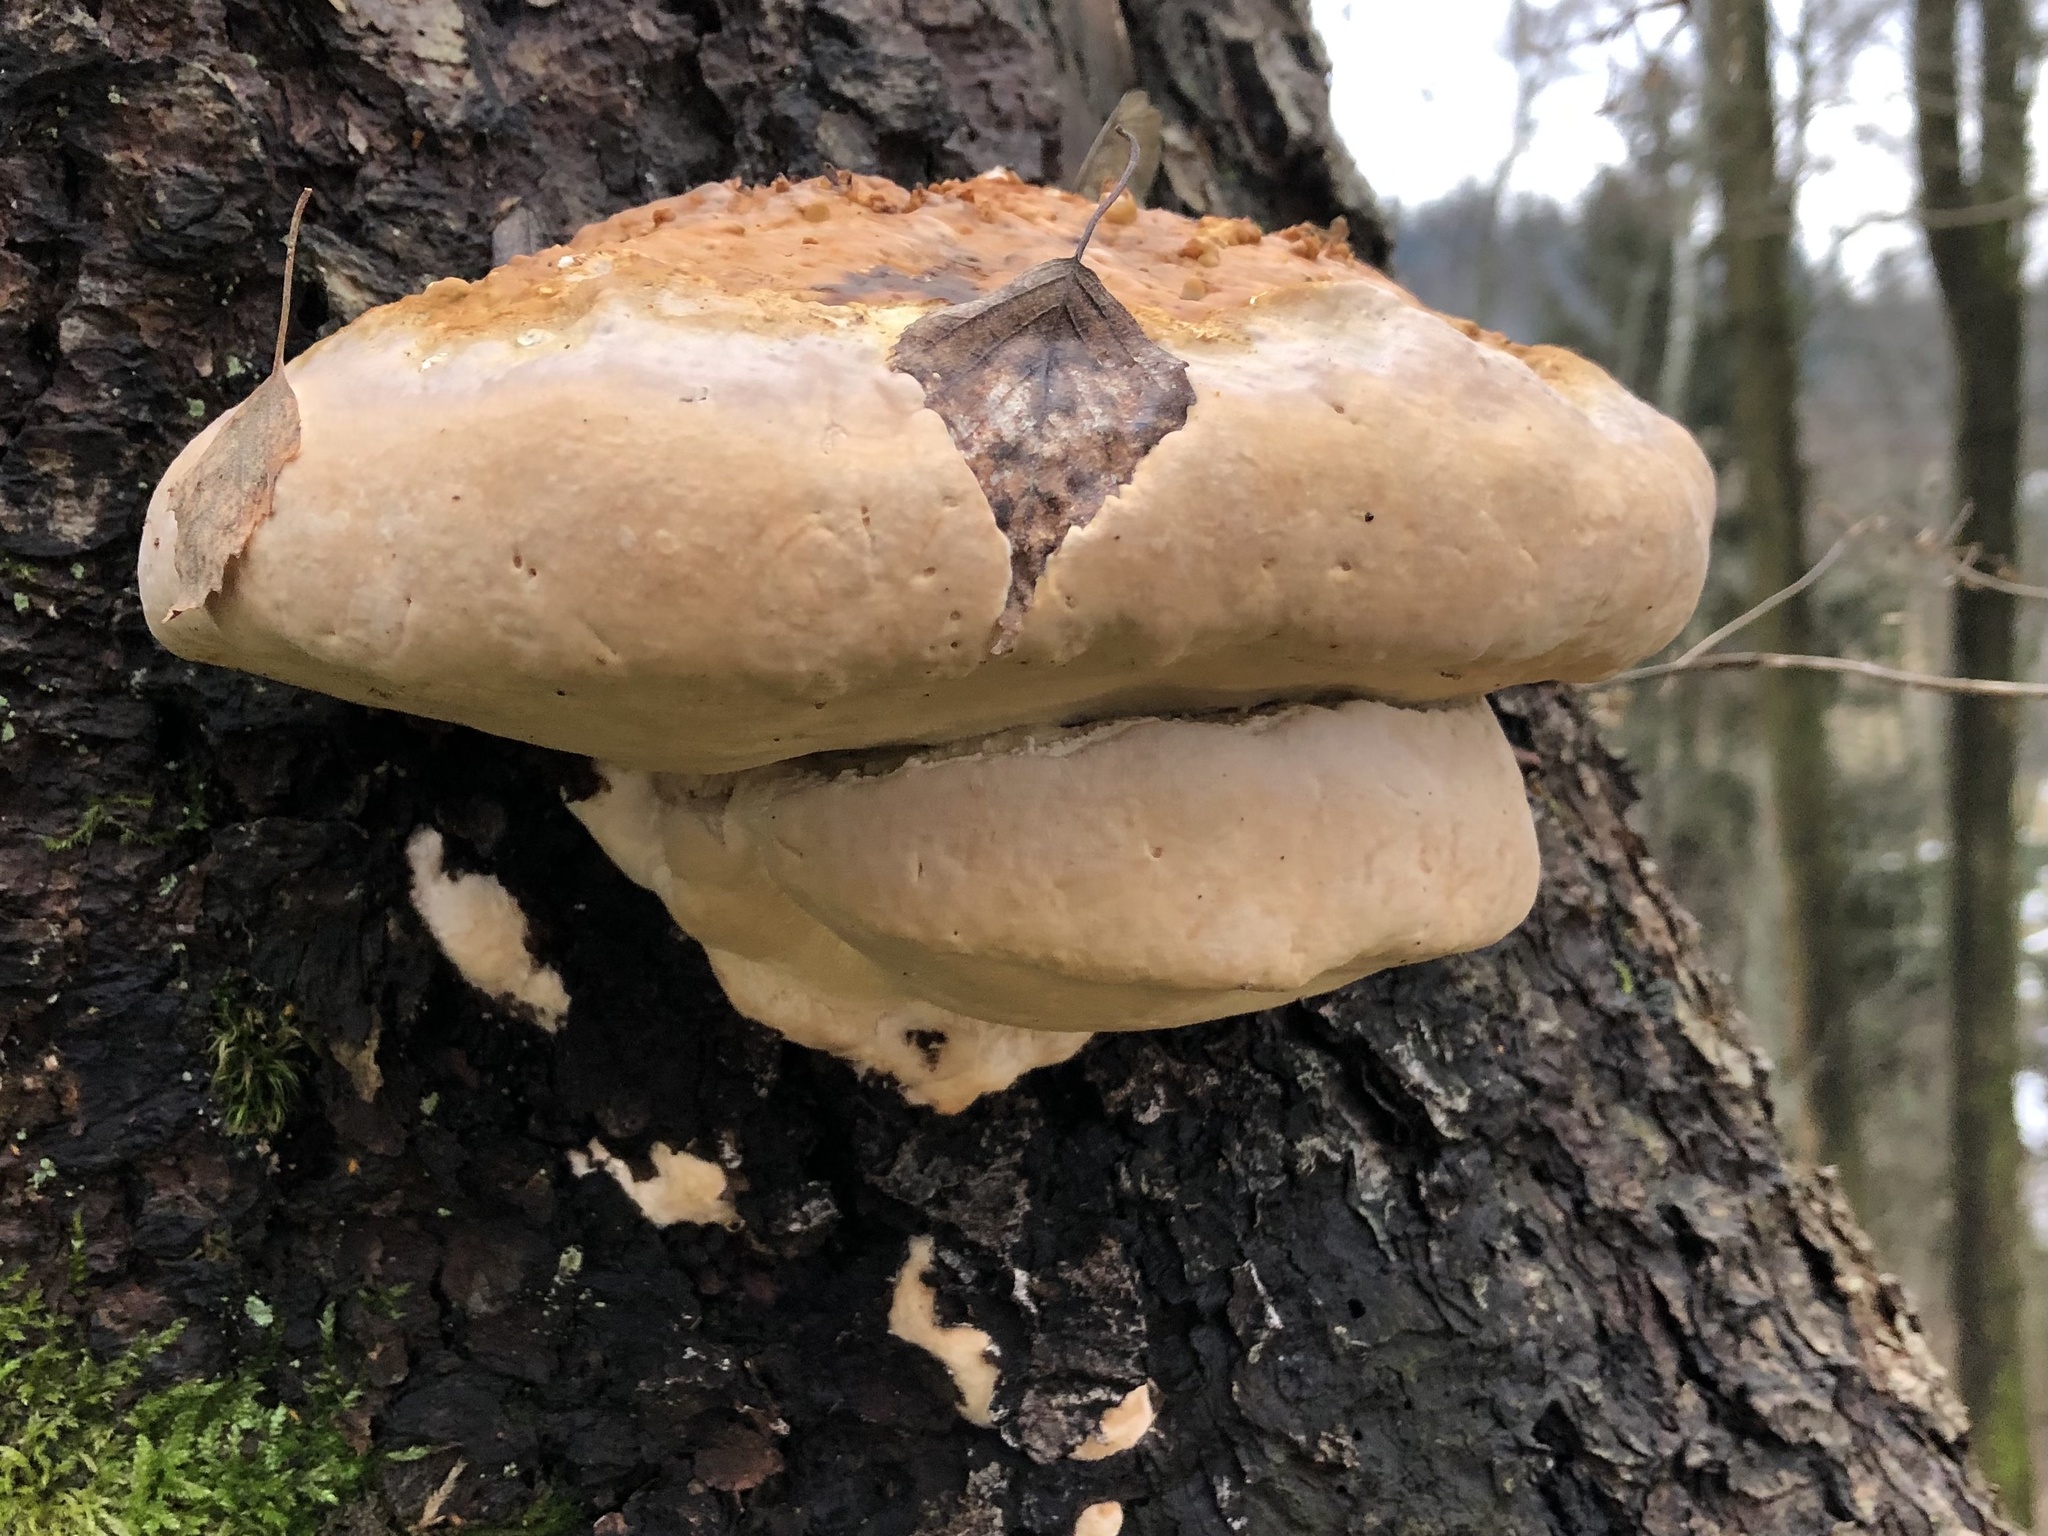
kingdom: Fungi
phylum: Basidiomycota
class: Agaricomycetes
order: Polyporales
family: Fomitopsidaceae
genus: Fomitopsis
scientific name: Fomitopsis pinicola
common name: Red-belted bracket
